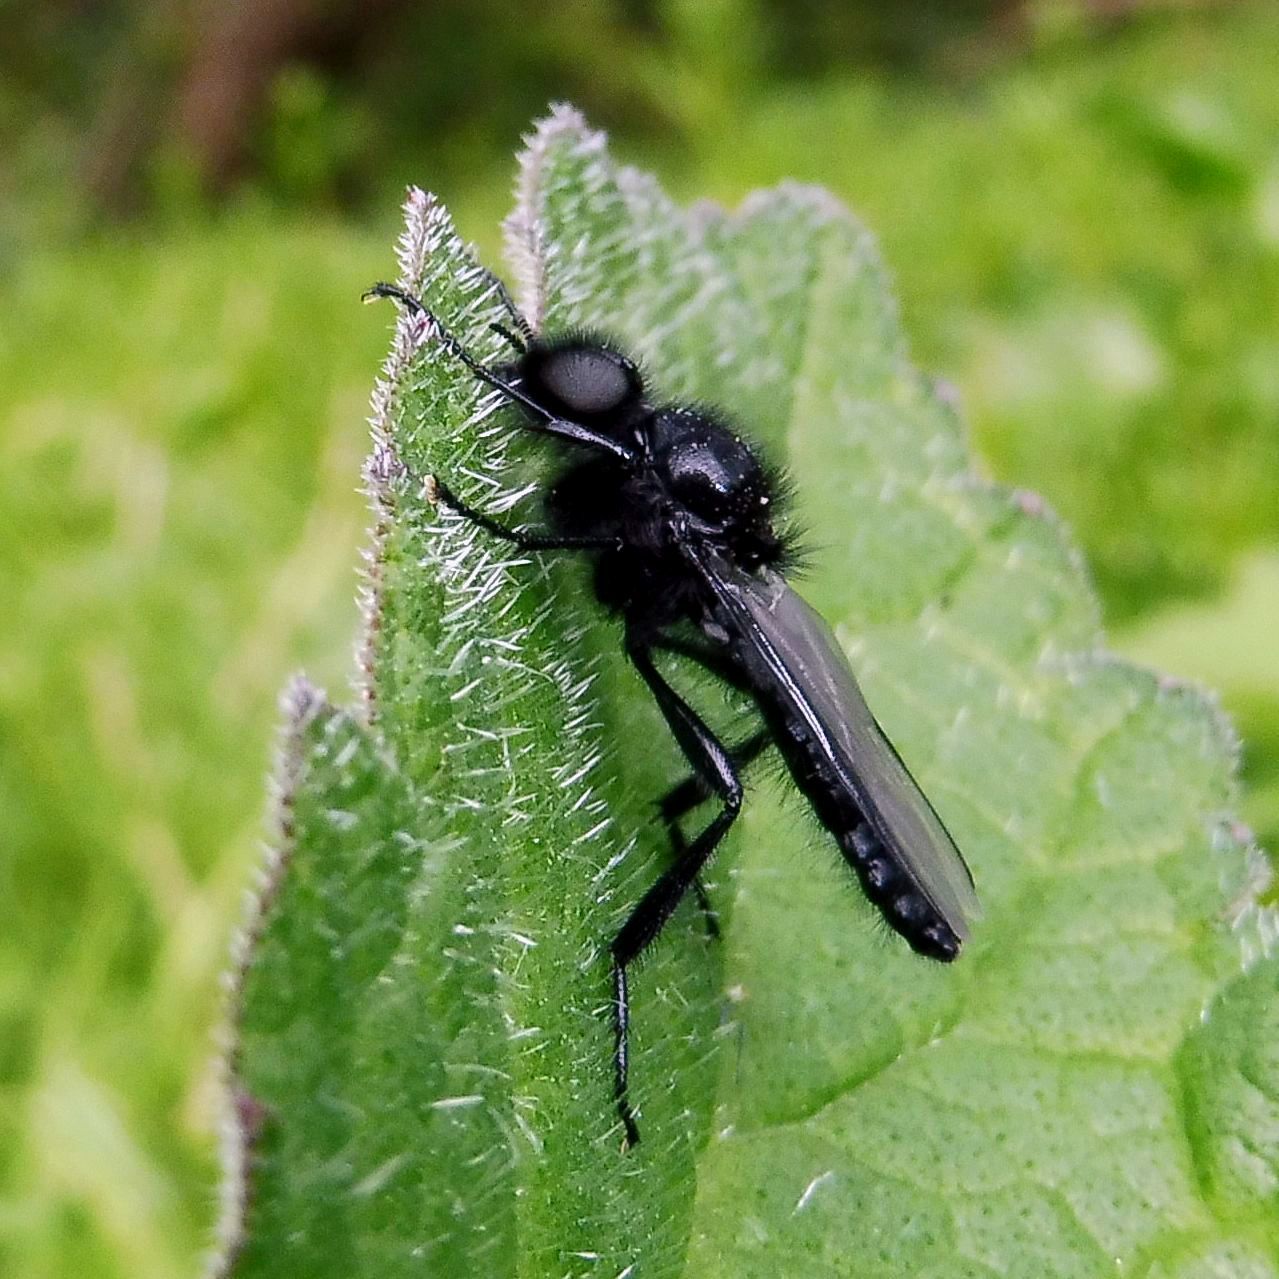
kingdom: Animalia
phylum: Arthropoda
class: Insecta
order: Diptera
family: Bibionidae
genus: Bibio
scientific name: Bibio marci
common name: St marks fly
